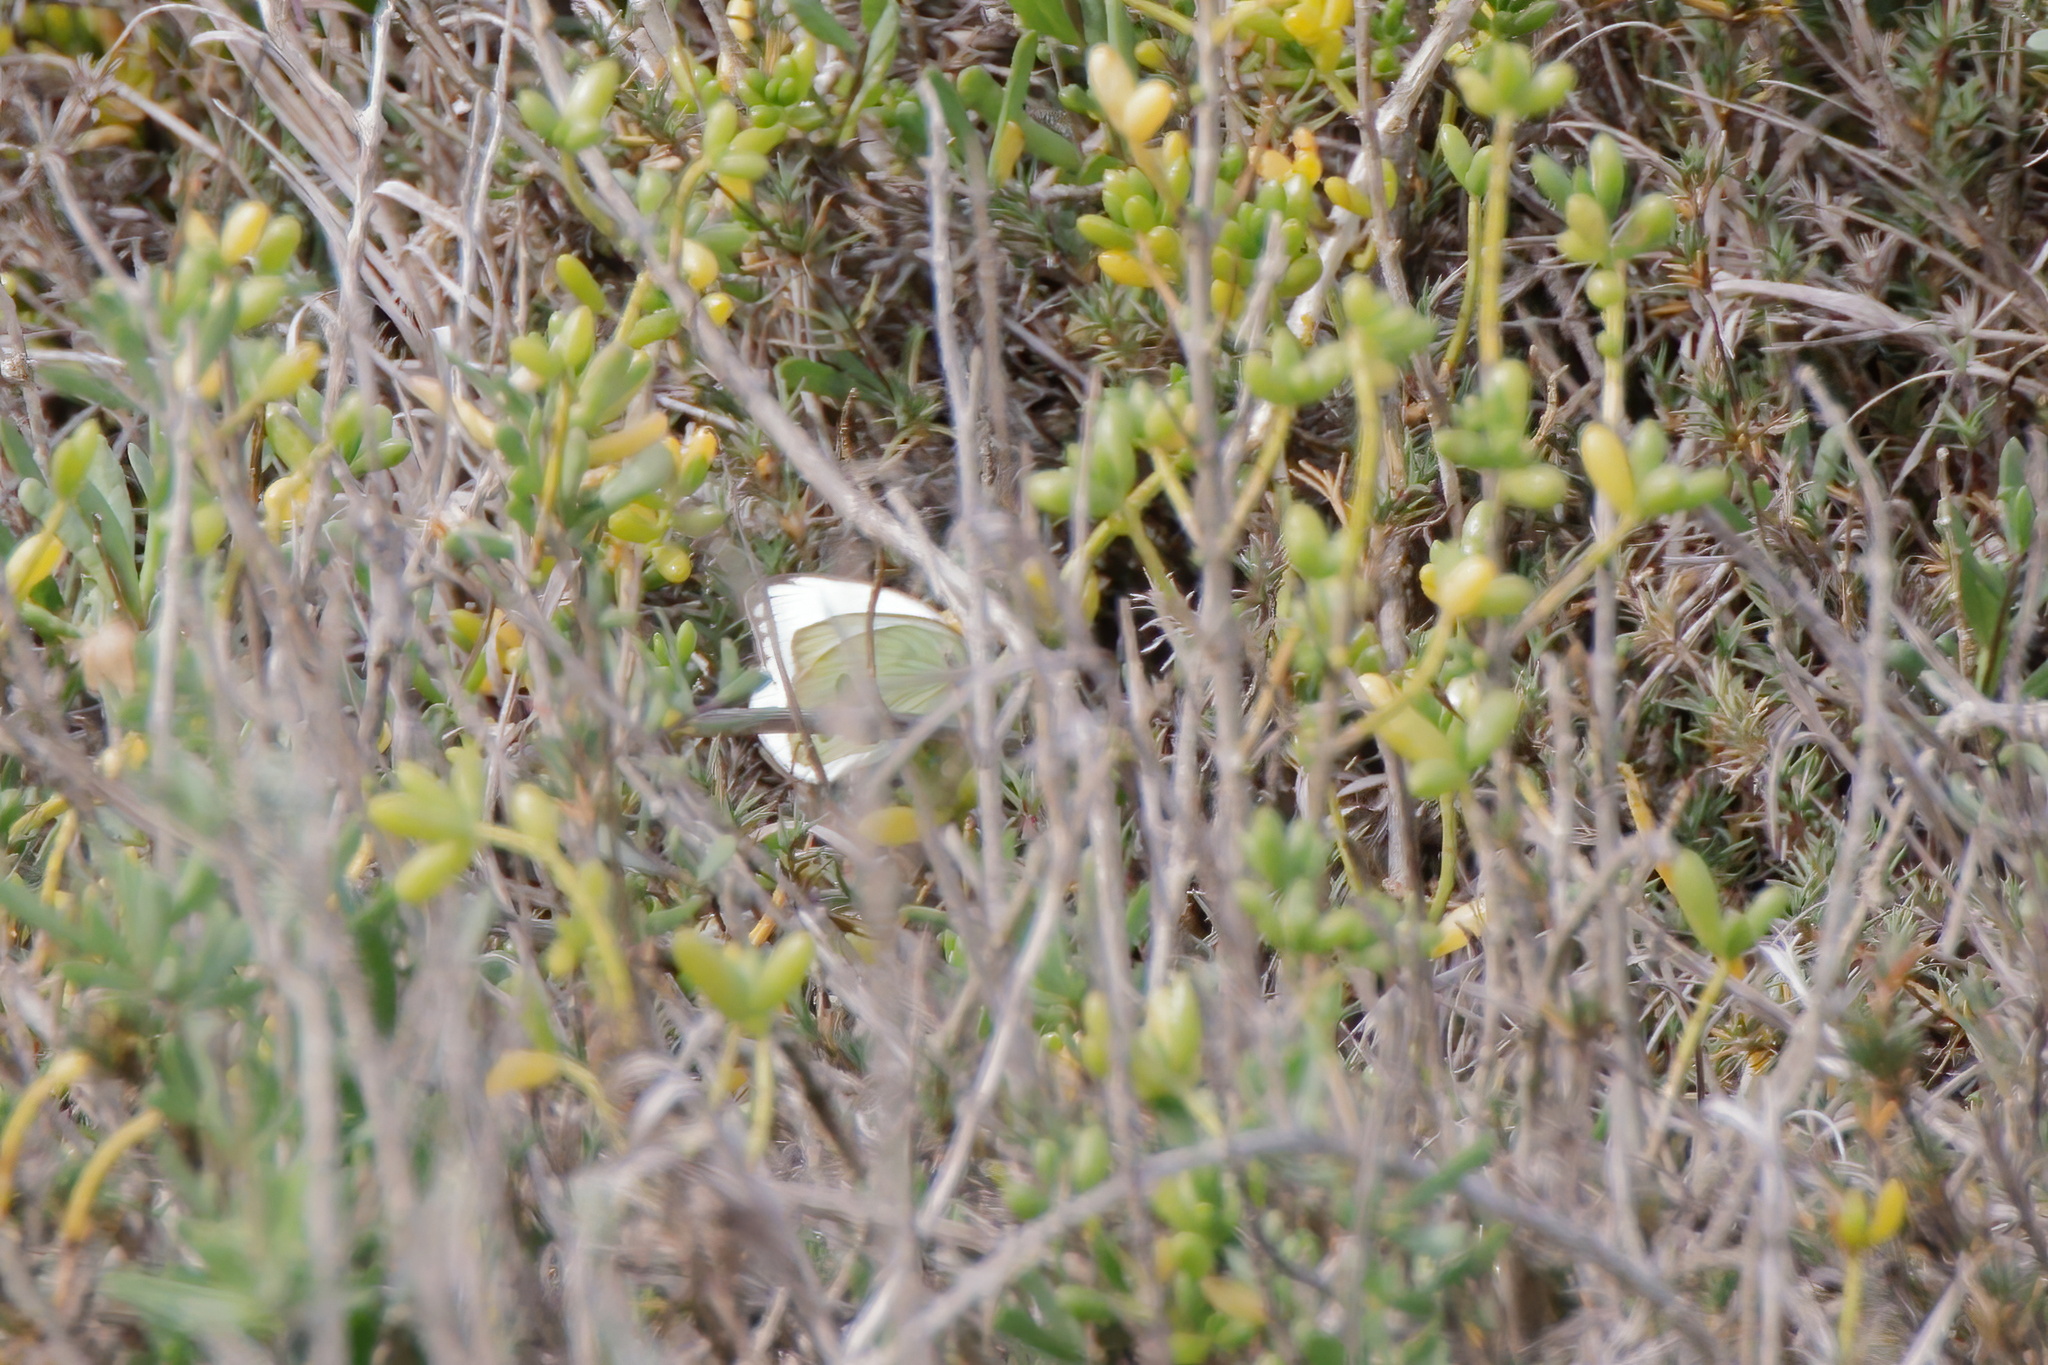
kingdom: Animalia
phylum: Arthropoda
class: Insecta
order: Lepidoptera
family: Pieridae
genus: Ascia
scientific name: Ascia monuste
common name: Great southern white
